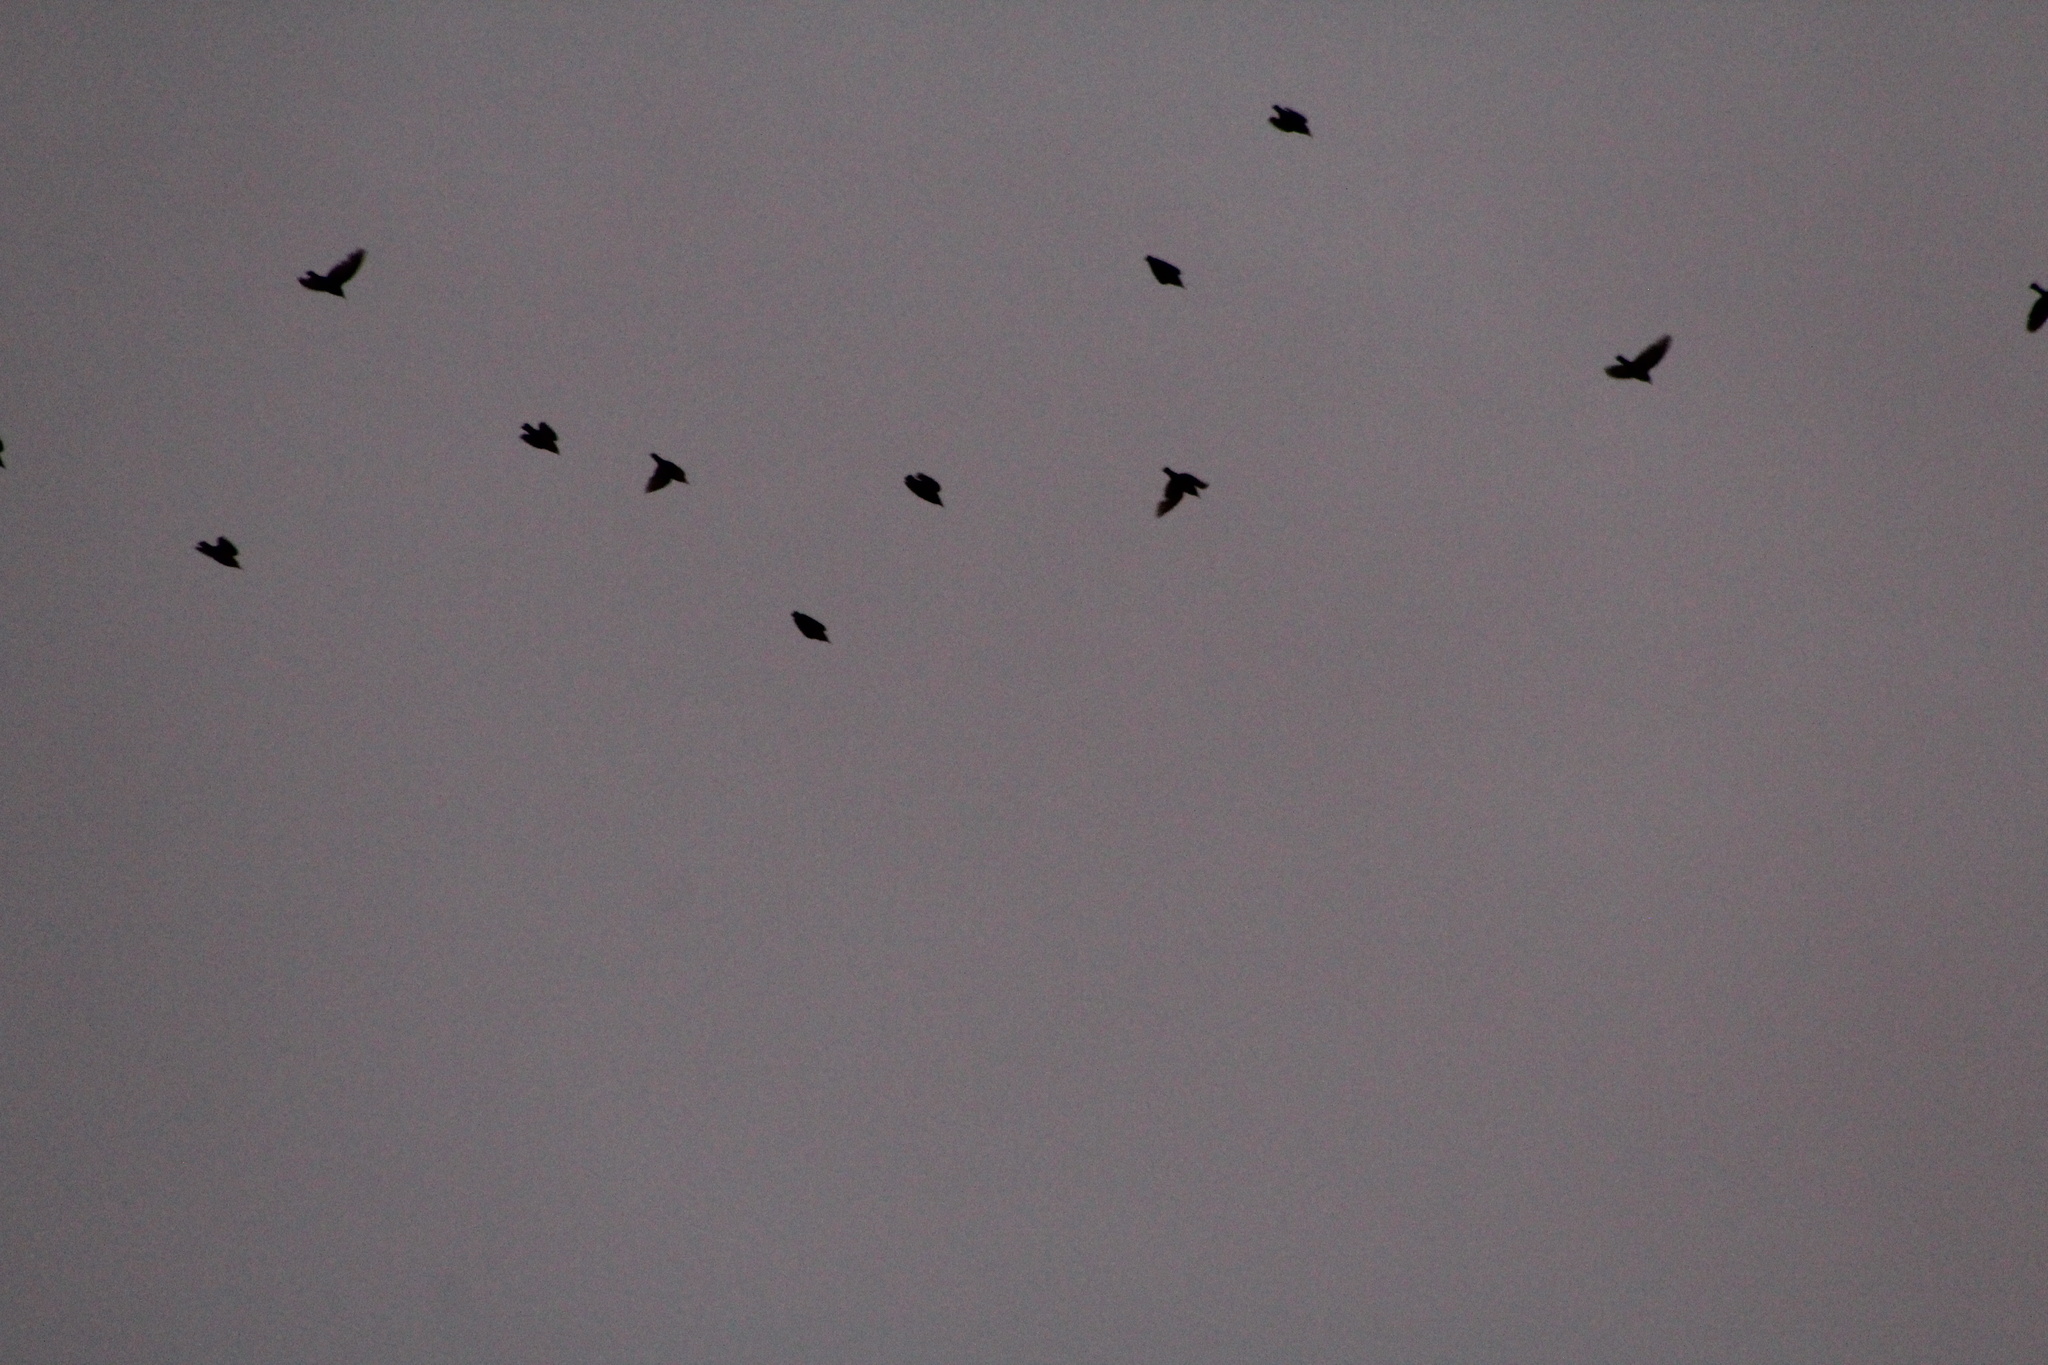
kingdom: Animalia
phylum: Chordata
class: Aves
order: Passeriformes
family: Sturnidae
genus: Sturnus
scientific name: Sturnus vulgaris
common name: Common starling
